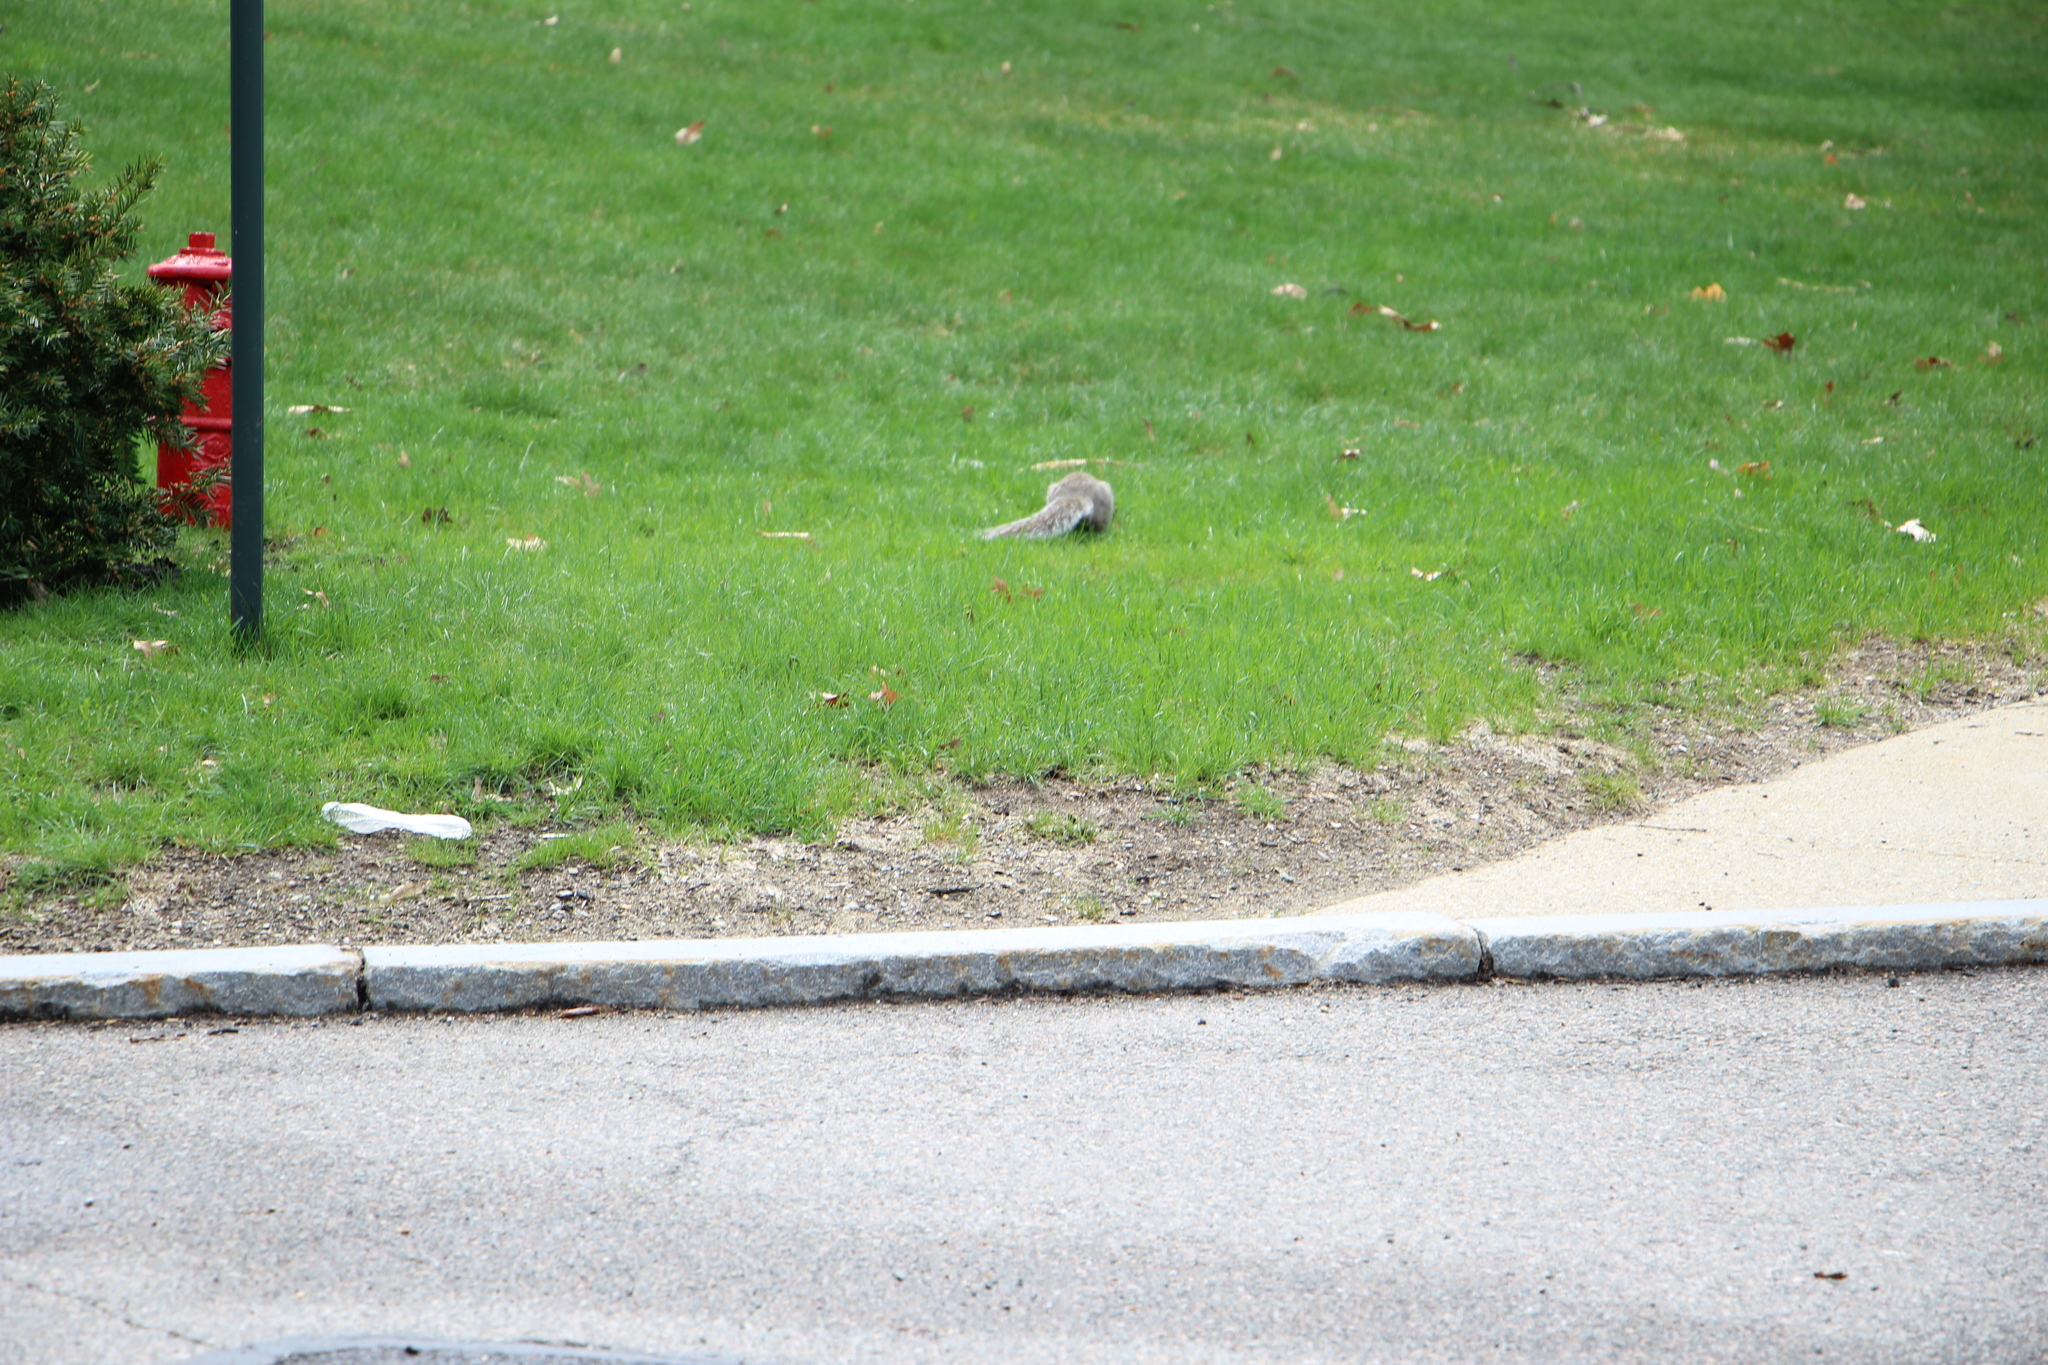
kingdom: Animalia
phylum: Chordata
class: Mammalia
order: Rodentia
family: Sciuridae
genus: Sciurus
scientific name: Sciurus carolinensis
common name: Eastern gray squirrel
